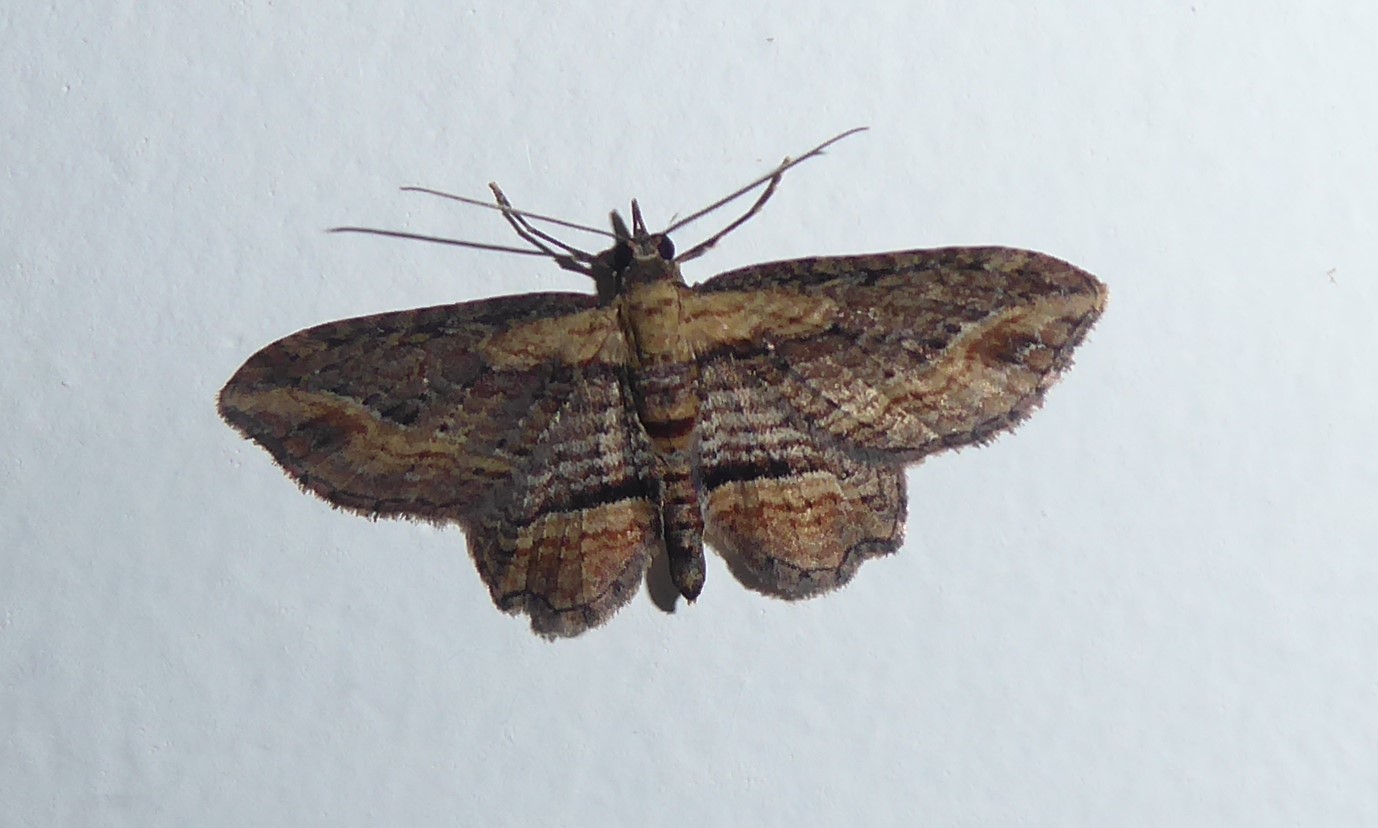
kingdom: Animalia
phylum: Arthropoda
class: Insecta
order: Lepidoptera
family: Geometridae
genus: Chloroclystis
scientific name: Chloroclystis filata
